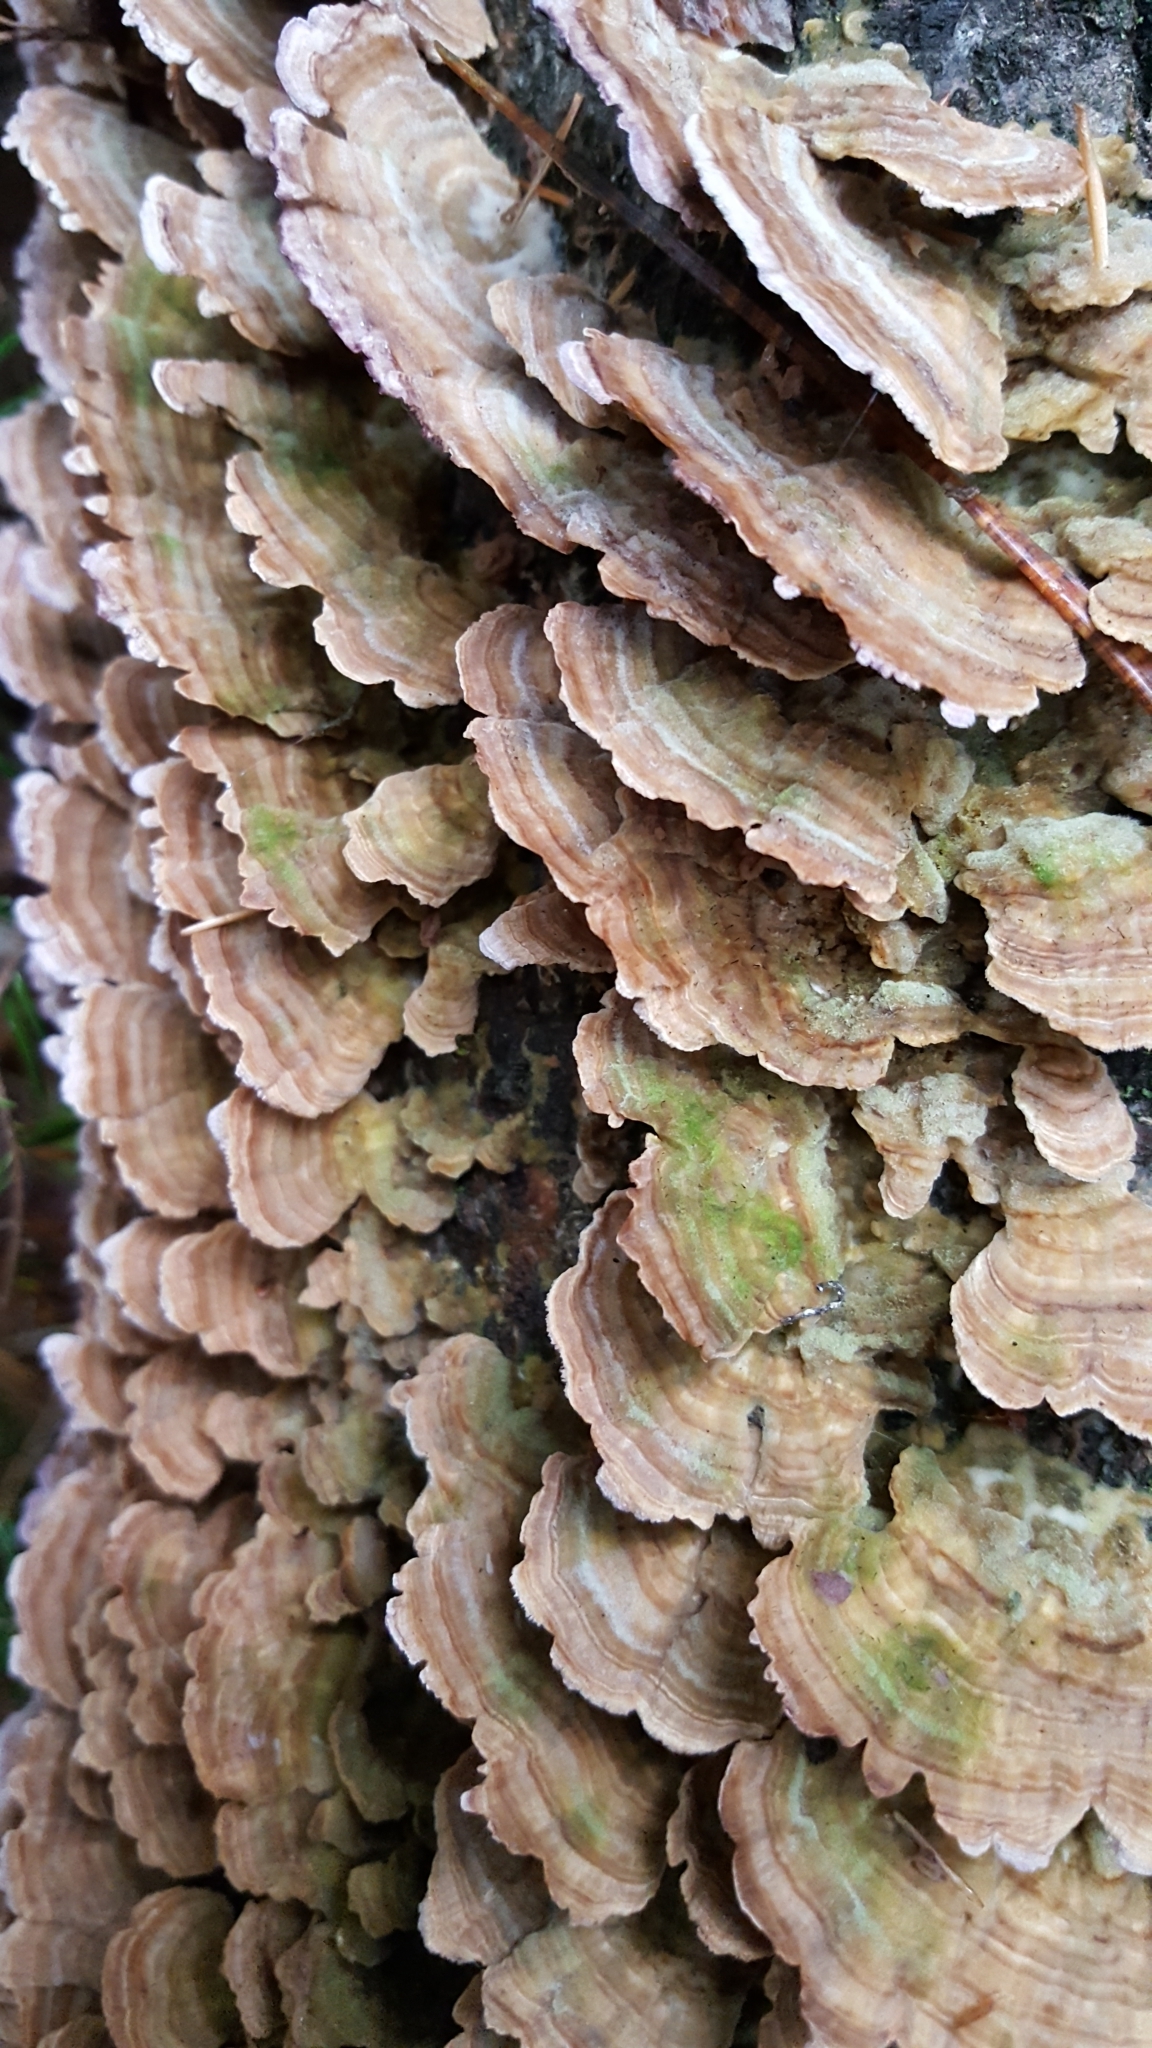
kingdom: Fungi
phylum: Basidiomycota
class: Agaricomycetes
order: Hymenochaetales
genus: Trichaptum
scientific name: Trichaptum biforme
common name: Violet-toothed polypore
